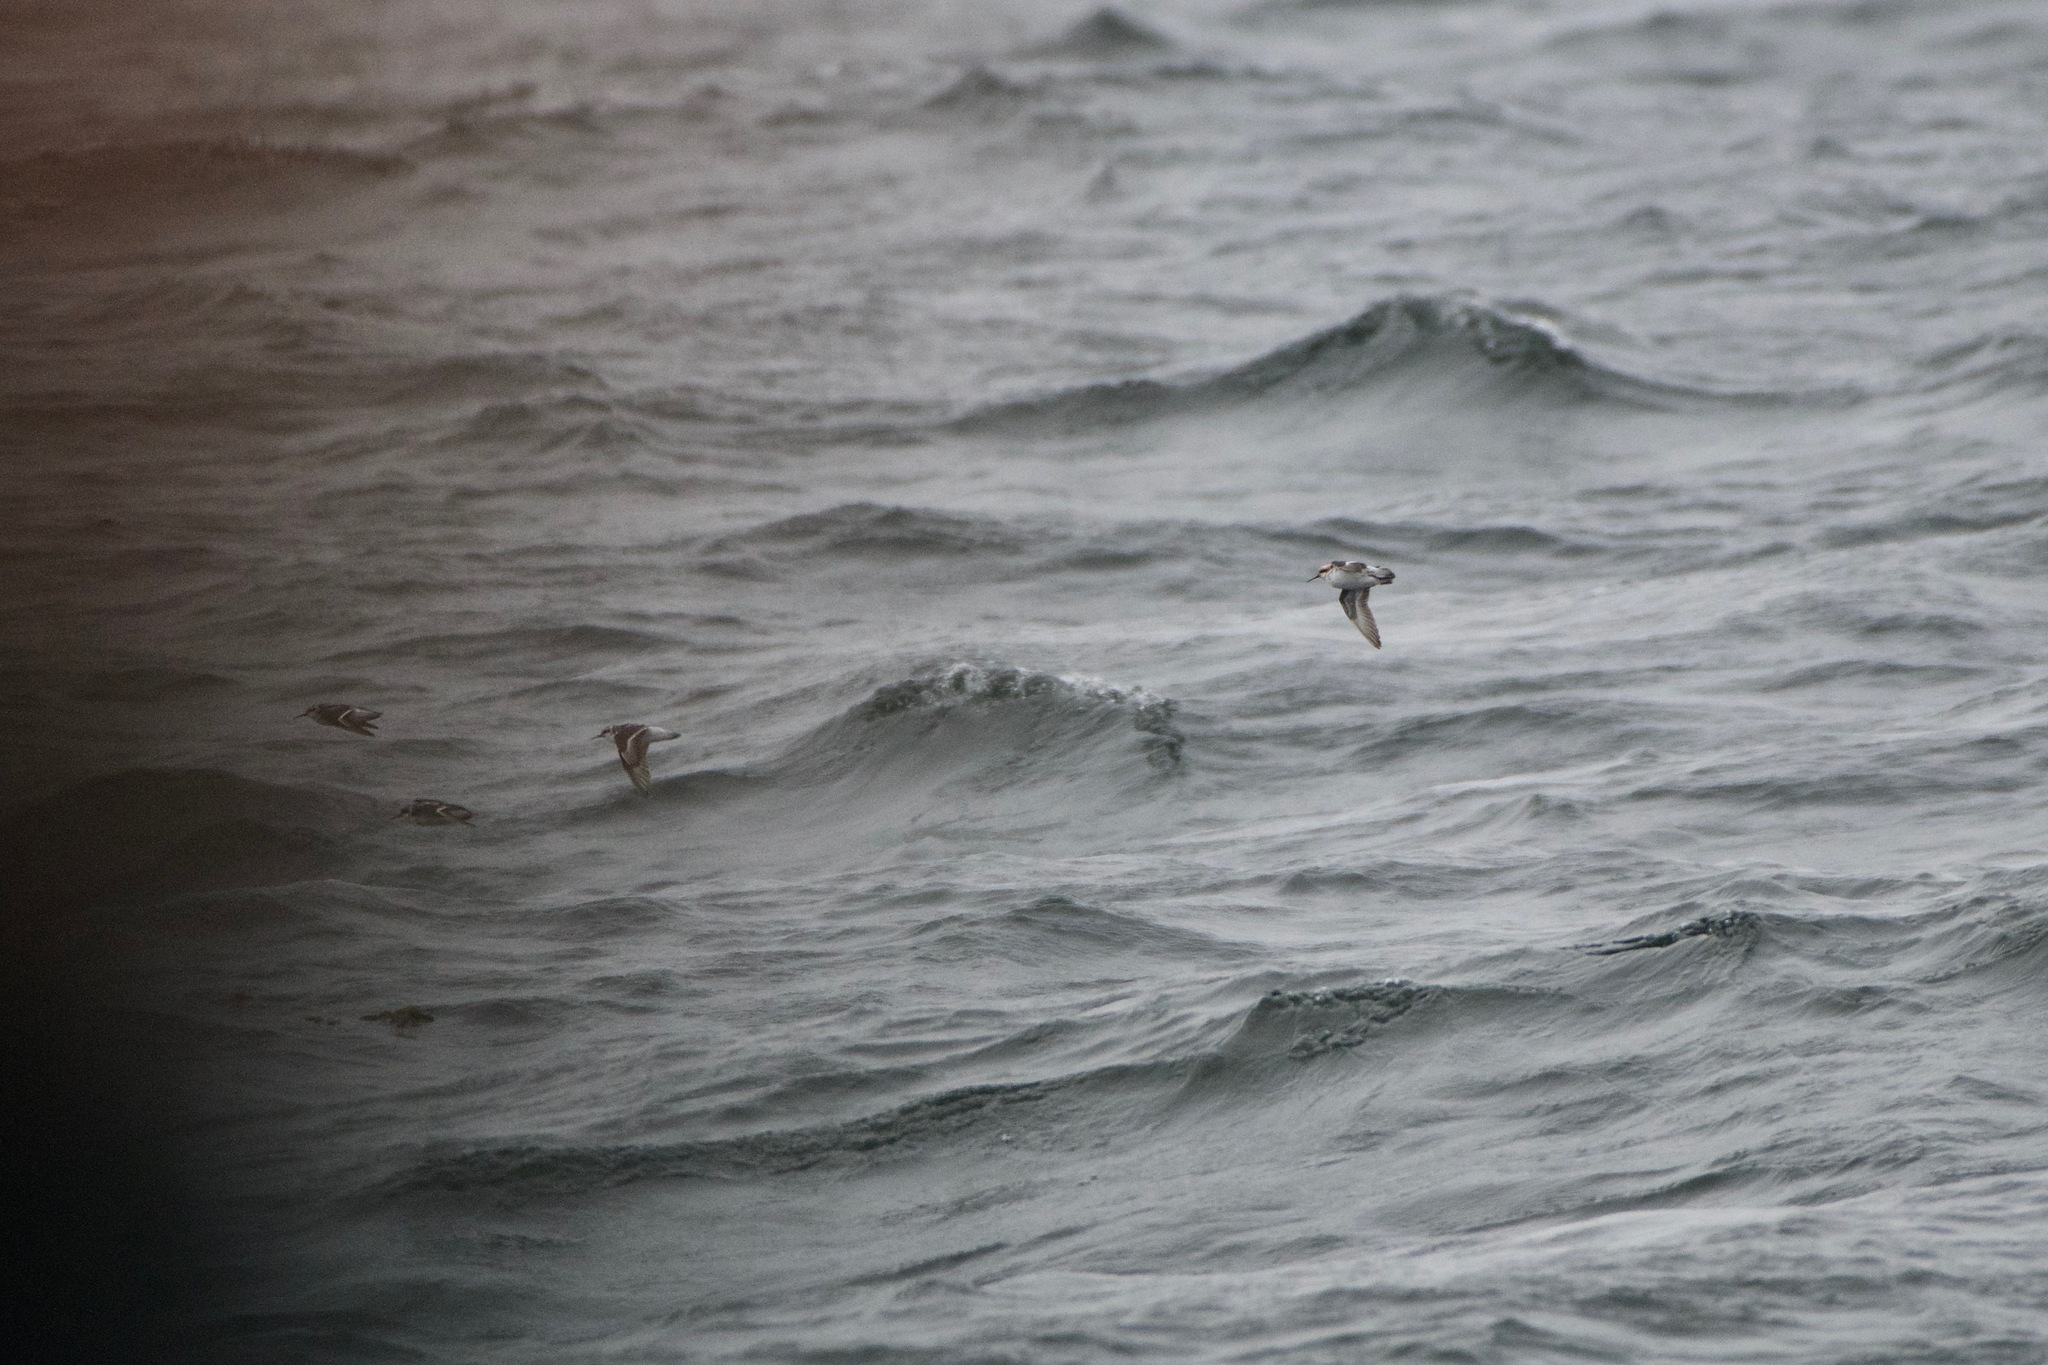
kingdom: Animalia
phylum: Chordata
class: Aves
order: Charadriiformes
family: Scolopacidae
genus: Phalaropus
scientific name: Phalaropus lobatus
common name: Red-necked phalarope
